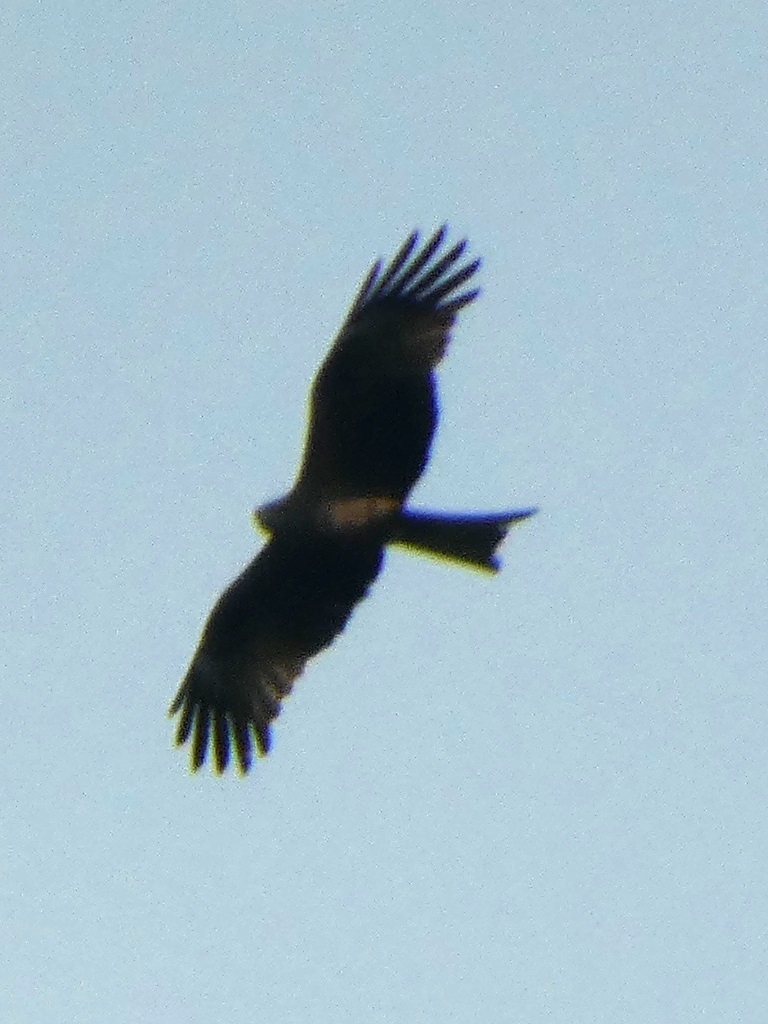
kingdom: Animalia
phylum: Chordata
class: Aves
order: Accipitriformes
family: Accipitridae
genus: Milvus
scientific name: Milvus migrans
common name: Black kite
